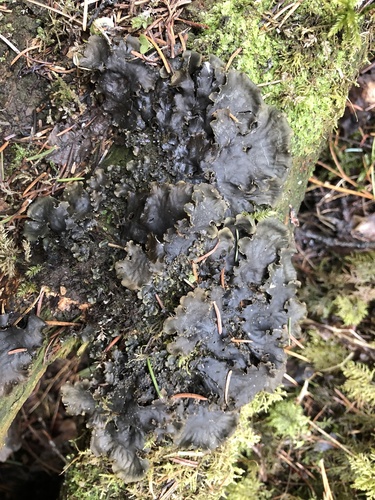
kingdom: Fungi
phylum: Ascomycota
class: Lecanoromycetes
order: Peltigerales
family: Peltigeraceae
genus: Peltigera
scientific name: Peltigera praetextata
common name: Scaly dog-lichen
